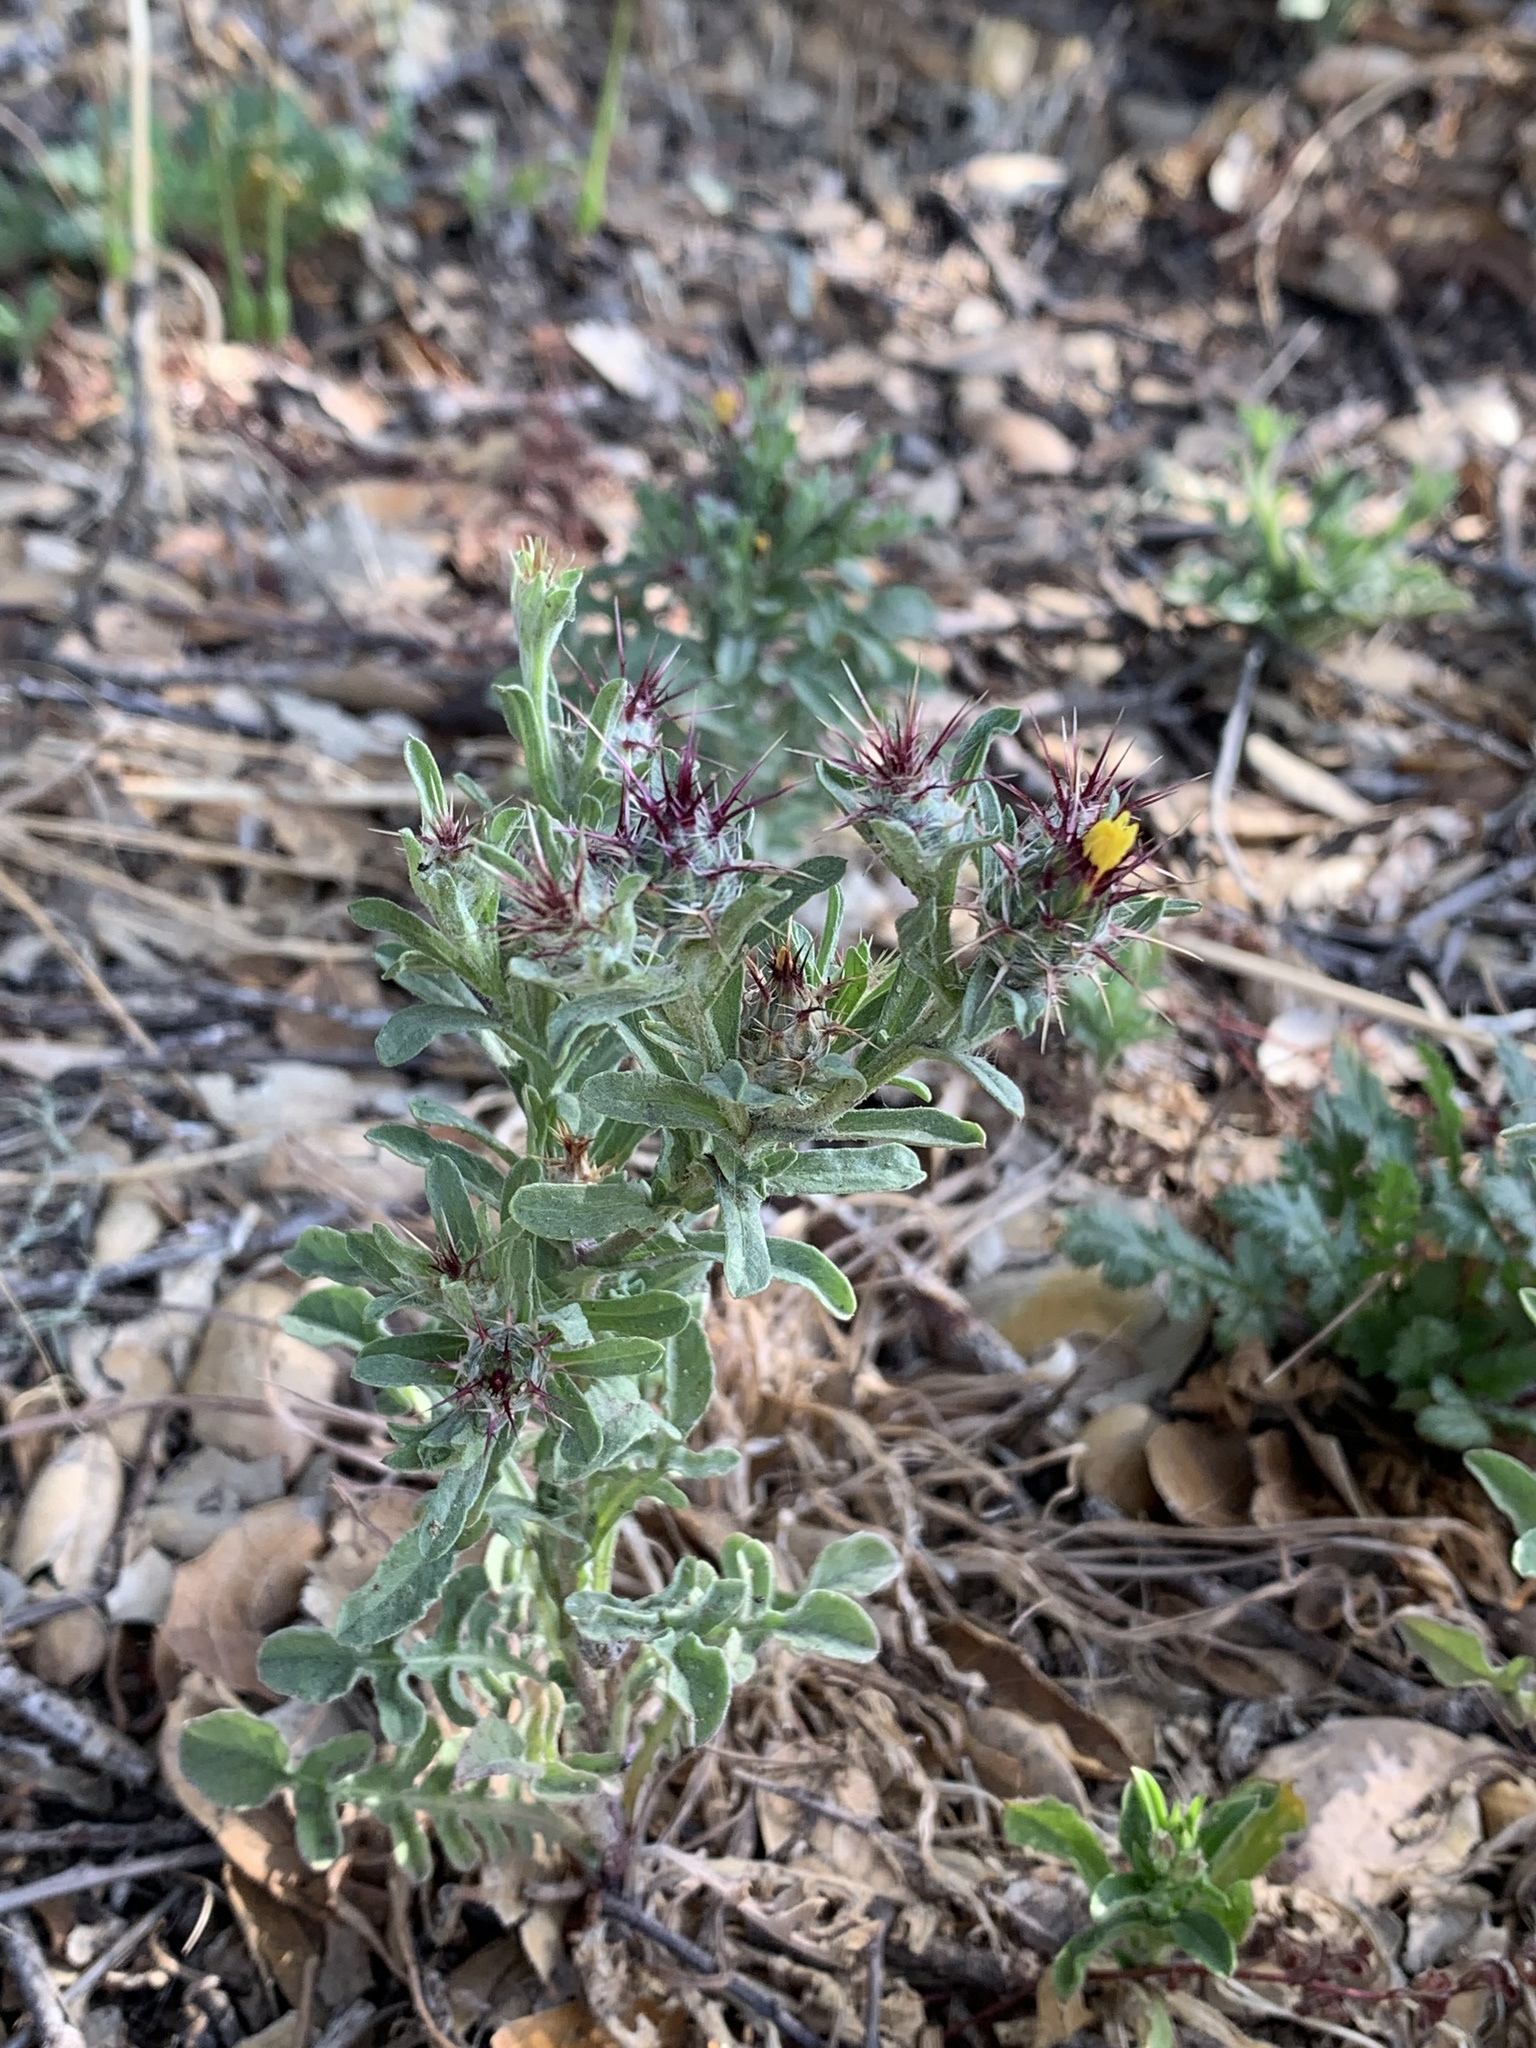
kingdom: Plantae
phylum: Tracheophyta
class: Magnoliopsida
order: Asterales
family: Asteraceae
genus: Centaurea
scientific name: Centaurea melitensis
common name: Maltese star-thistle
